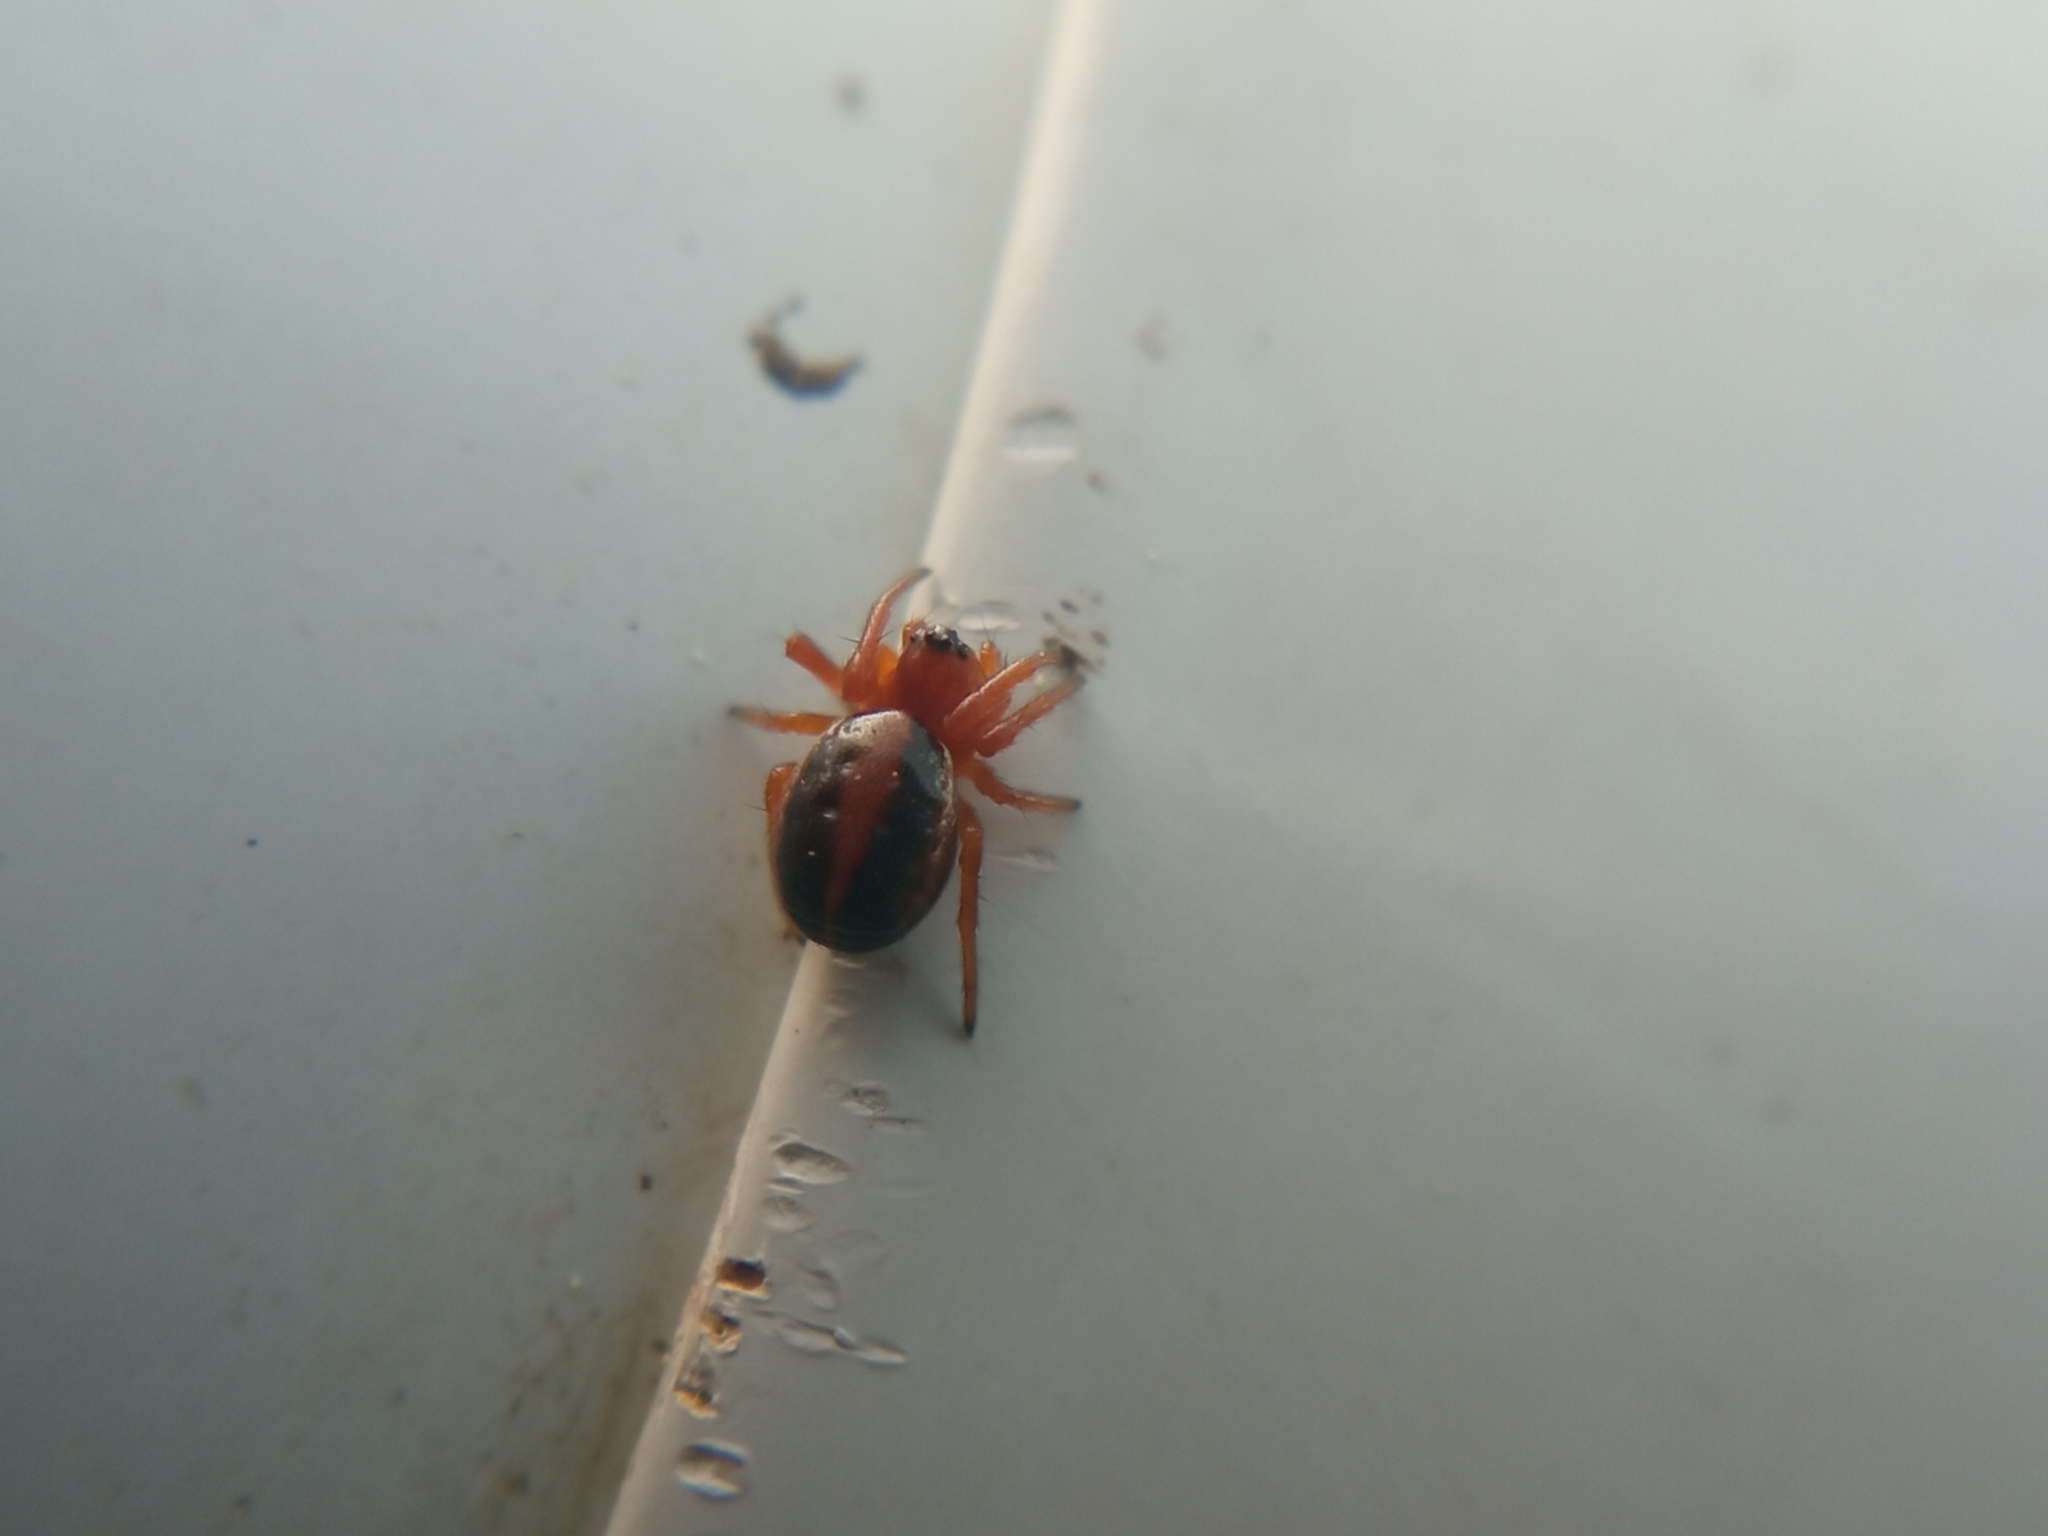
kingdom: Animalia
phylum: Arthropoda
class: Arachnida
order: Araneae
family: Araneidae
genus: Hypsosinga
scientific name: Hypsosinga sanguinea
